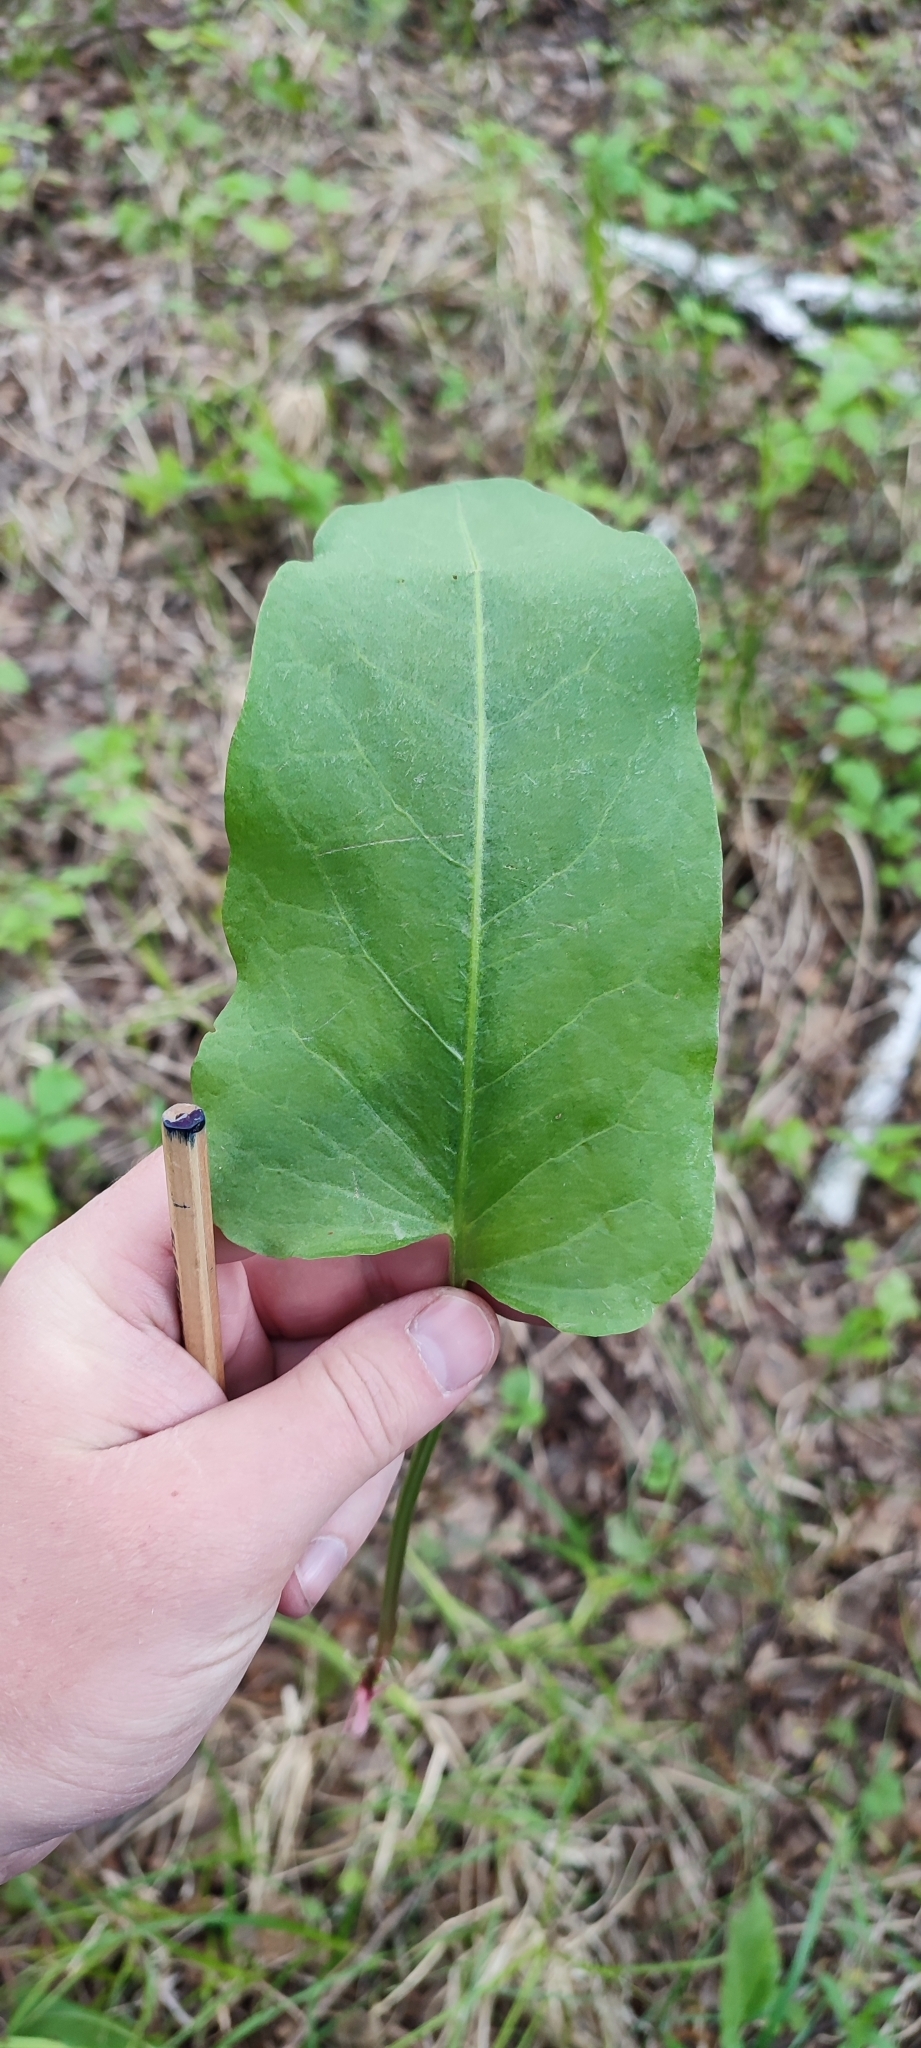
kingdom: Plantae
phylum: Tracheophyta
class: Magnoliopsida
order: Caryophyllales
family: Polygonaceae
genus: Rumex
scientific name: Rumex confertus
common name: Russian dock
